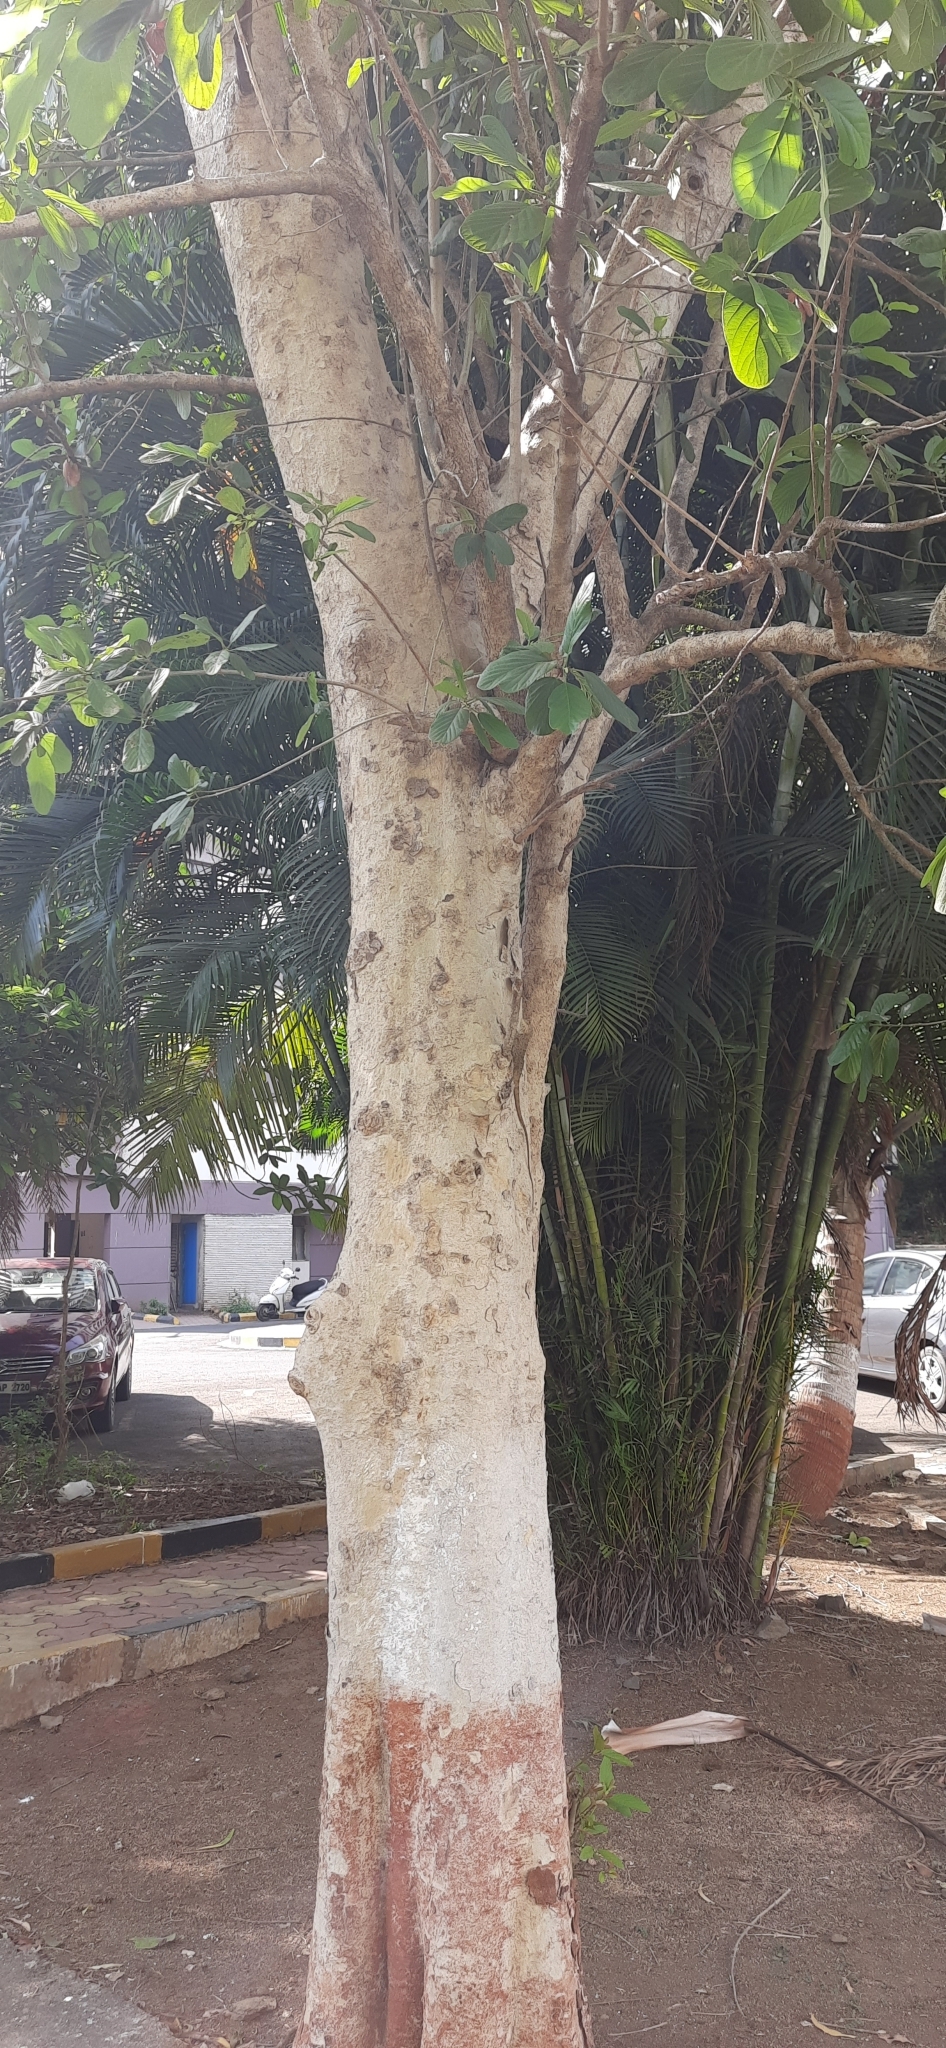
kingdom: Plantae
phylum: Tracheophyta
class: Magnoliopsida
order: Gentianales
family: Rubiaceae
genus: Mitragyna
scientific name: Mitragyna parvifolia
